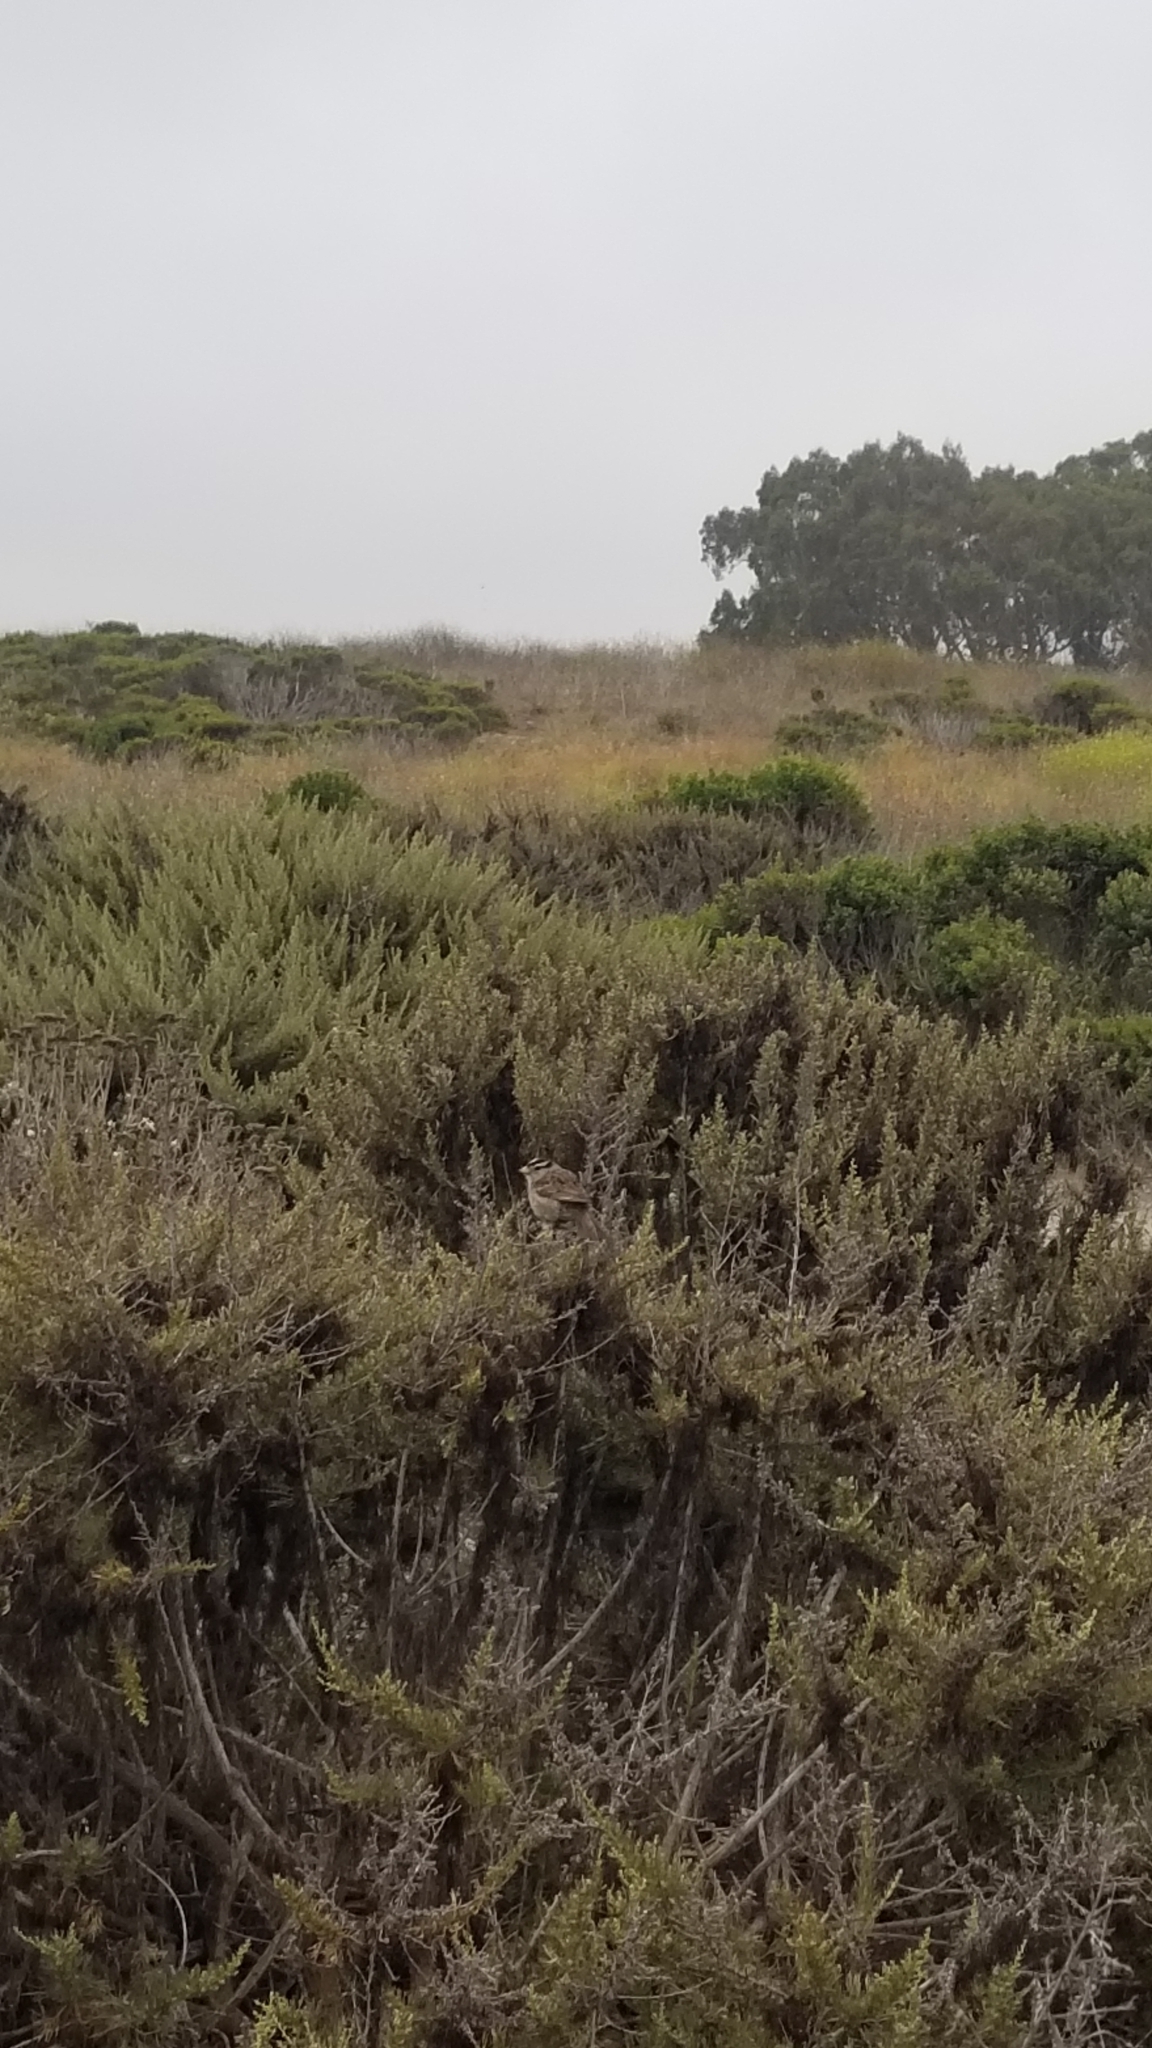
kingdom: Animalia
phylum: Chordata
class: Aves
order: Passeriformes
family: Passerellidae
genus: Zonotrichia
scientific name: Zonotrichia leucophrys
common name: White-crowned sparrow
